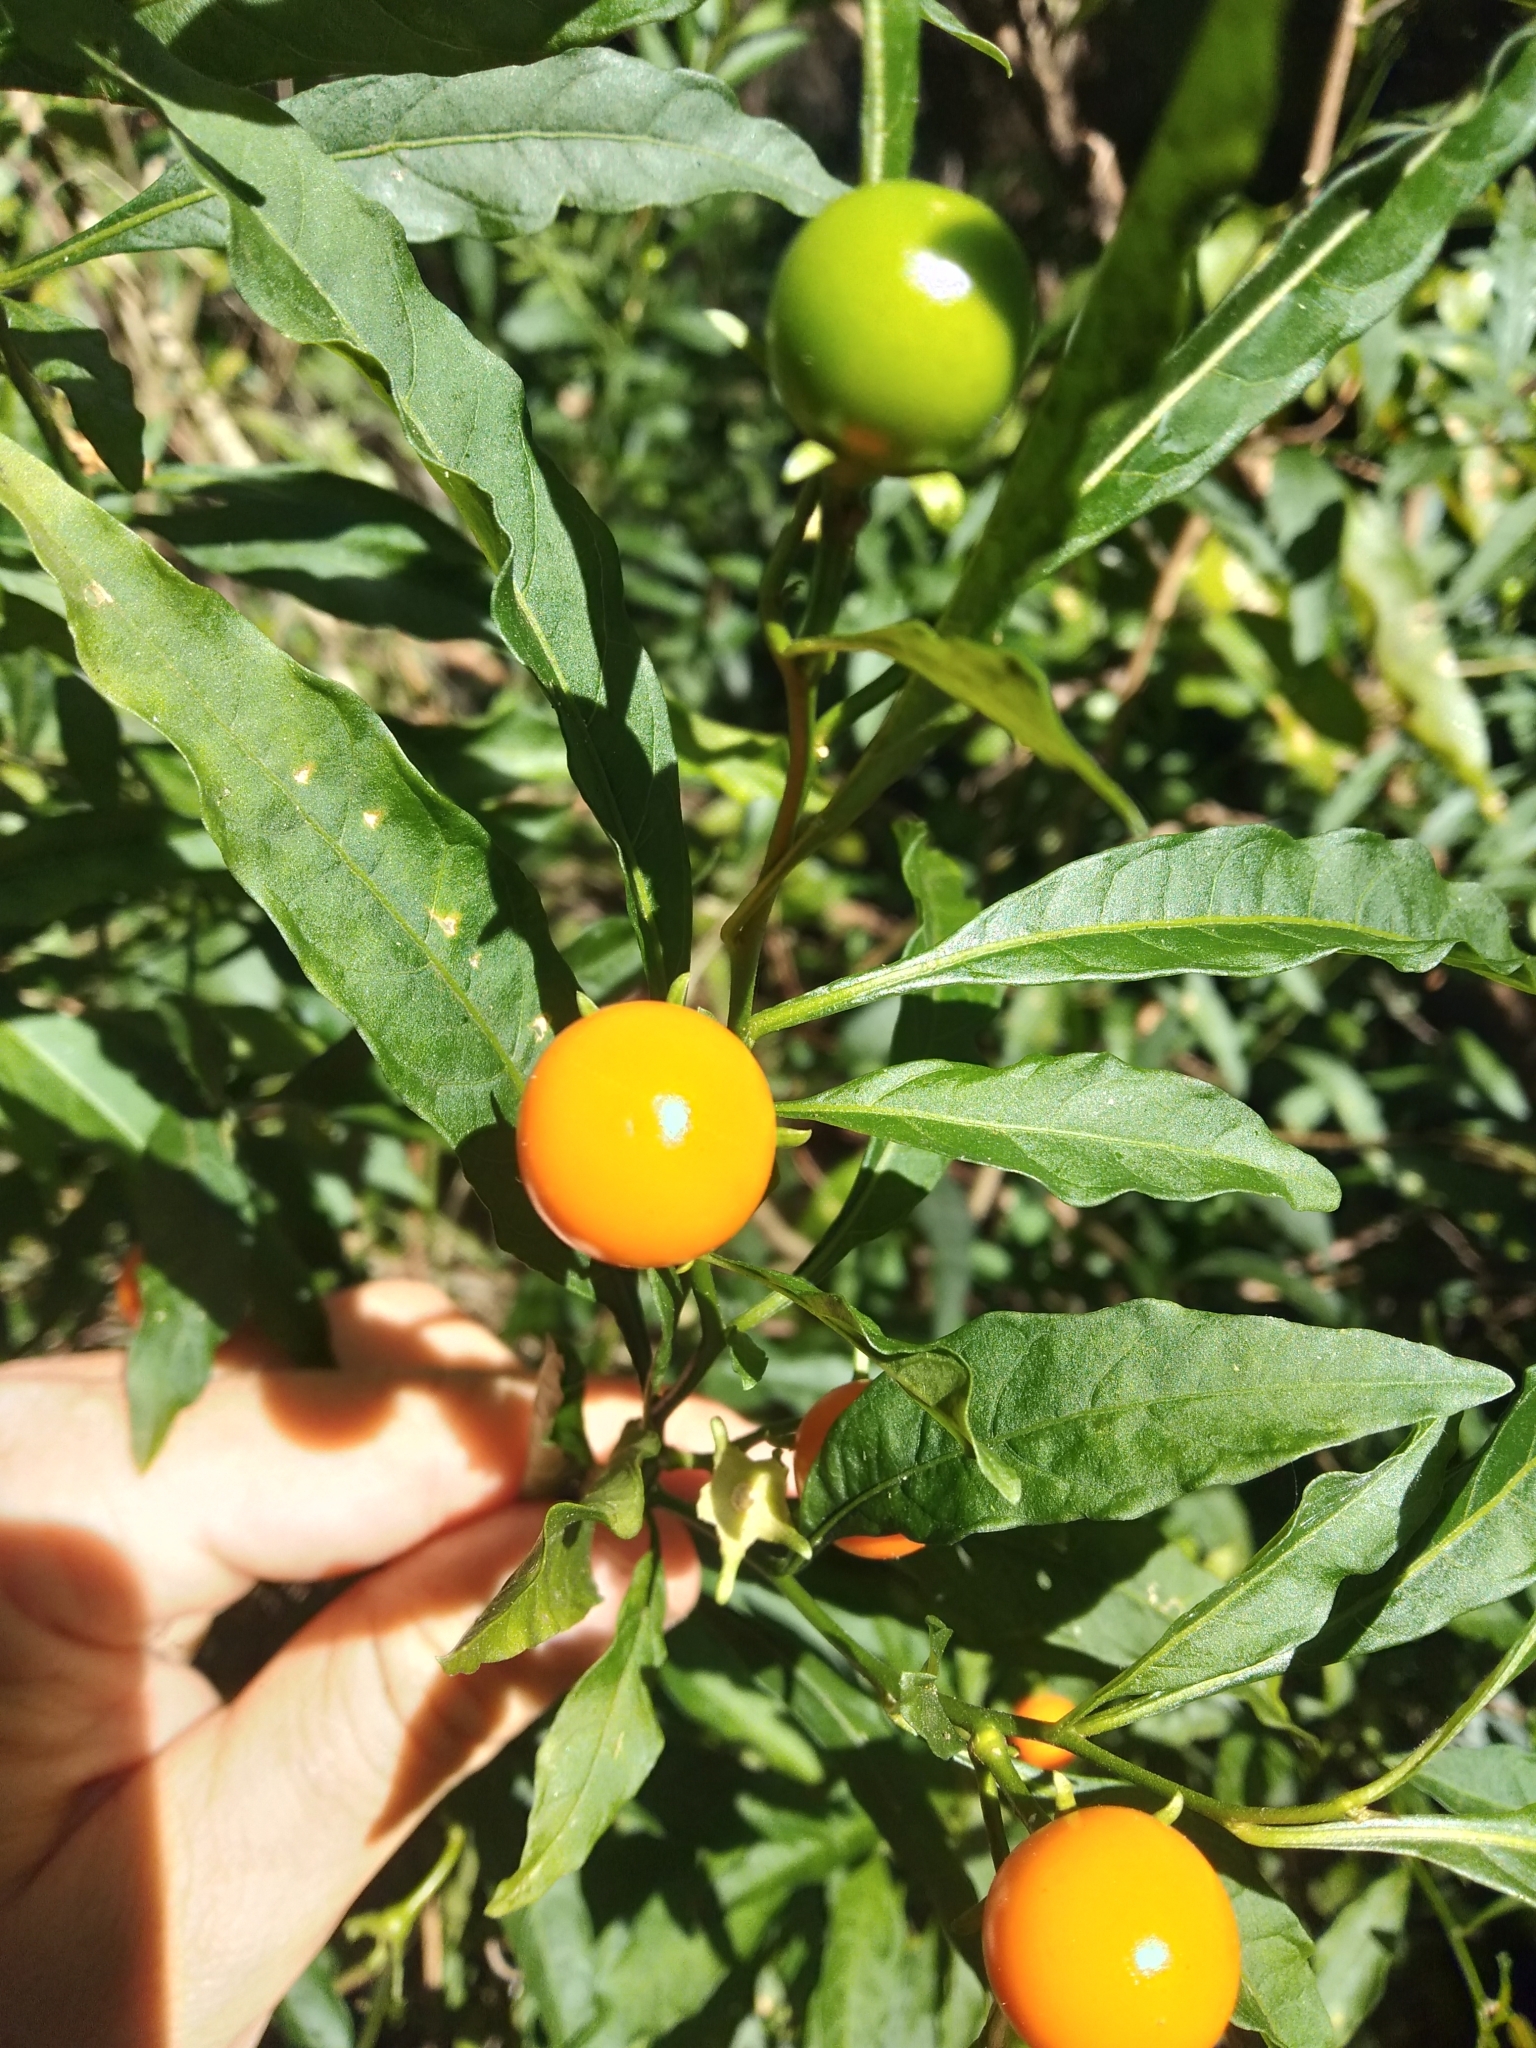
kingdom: Plantae
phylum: Tracheophyta
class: Magnoliopsida
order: Solanales
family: Solanaceae
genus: Solanum
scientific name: Solanum pseudocapsicum
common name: Jerusalem cherry
